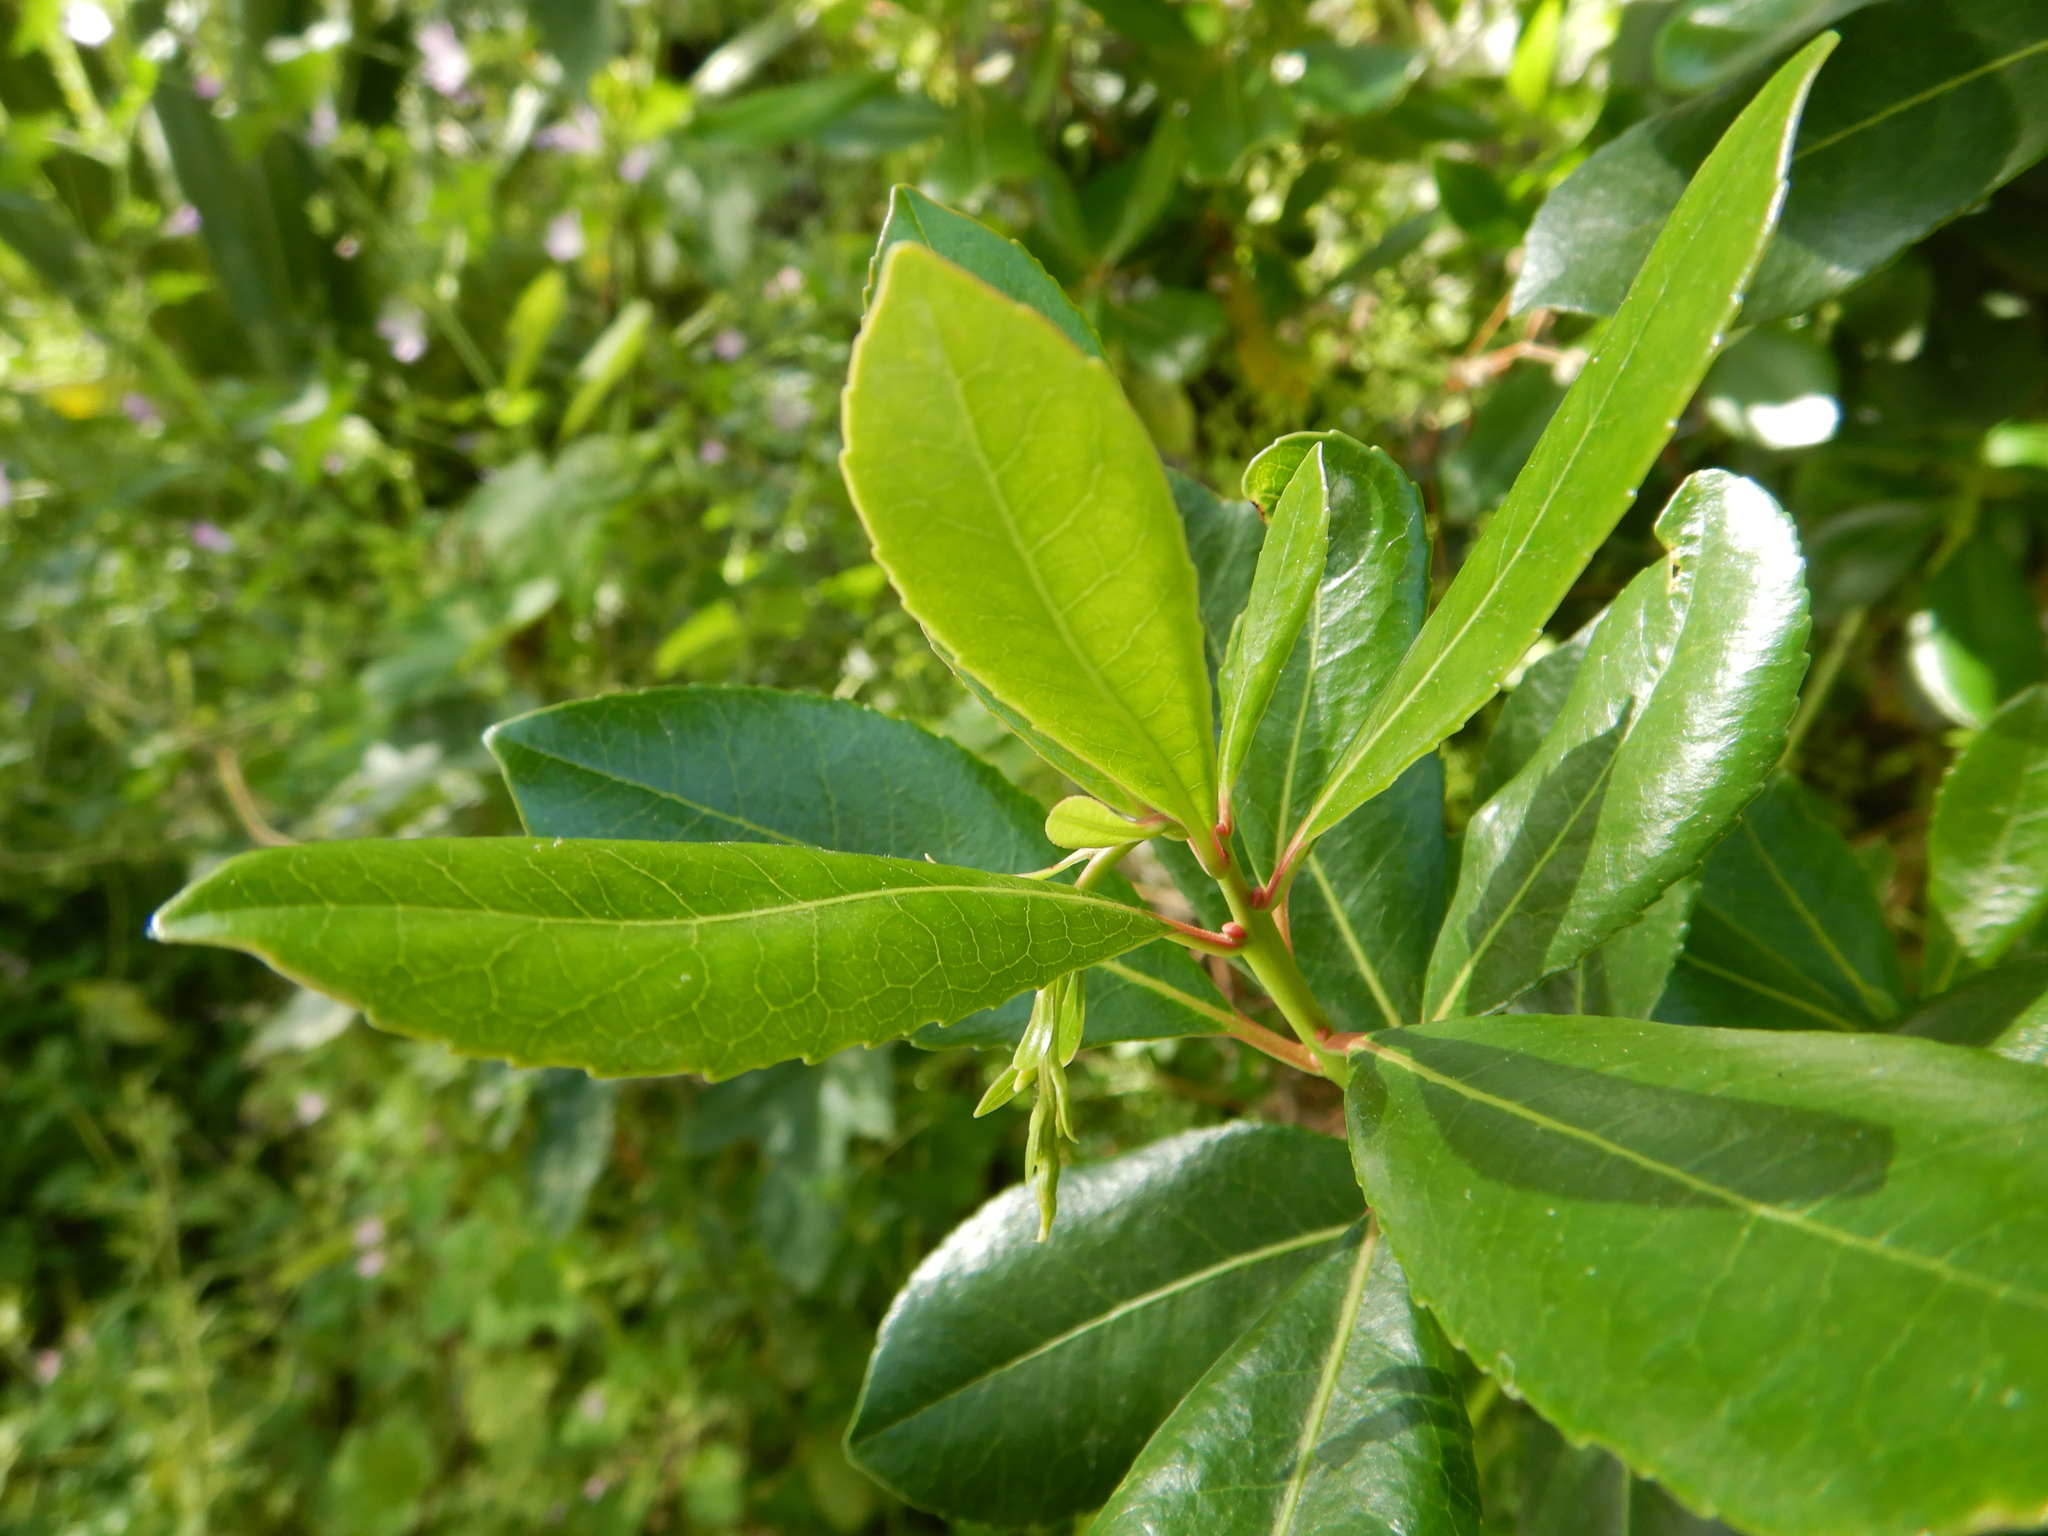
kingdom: Plantae
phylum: Tracheophyta
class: Magnoliopsida
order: Ericales
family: Ericaceae
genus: Arbutus
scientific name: Arbutus unedo
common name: Strawberry-tree
